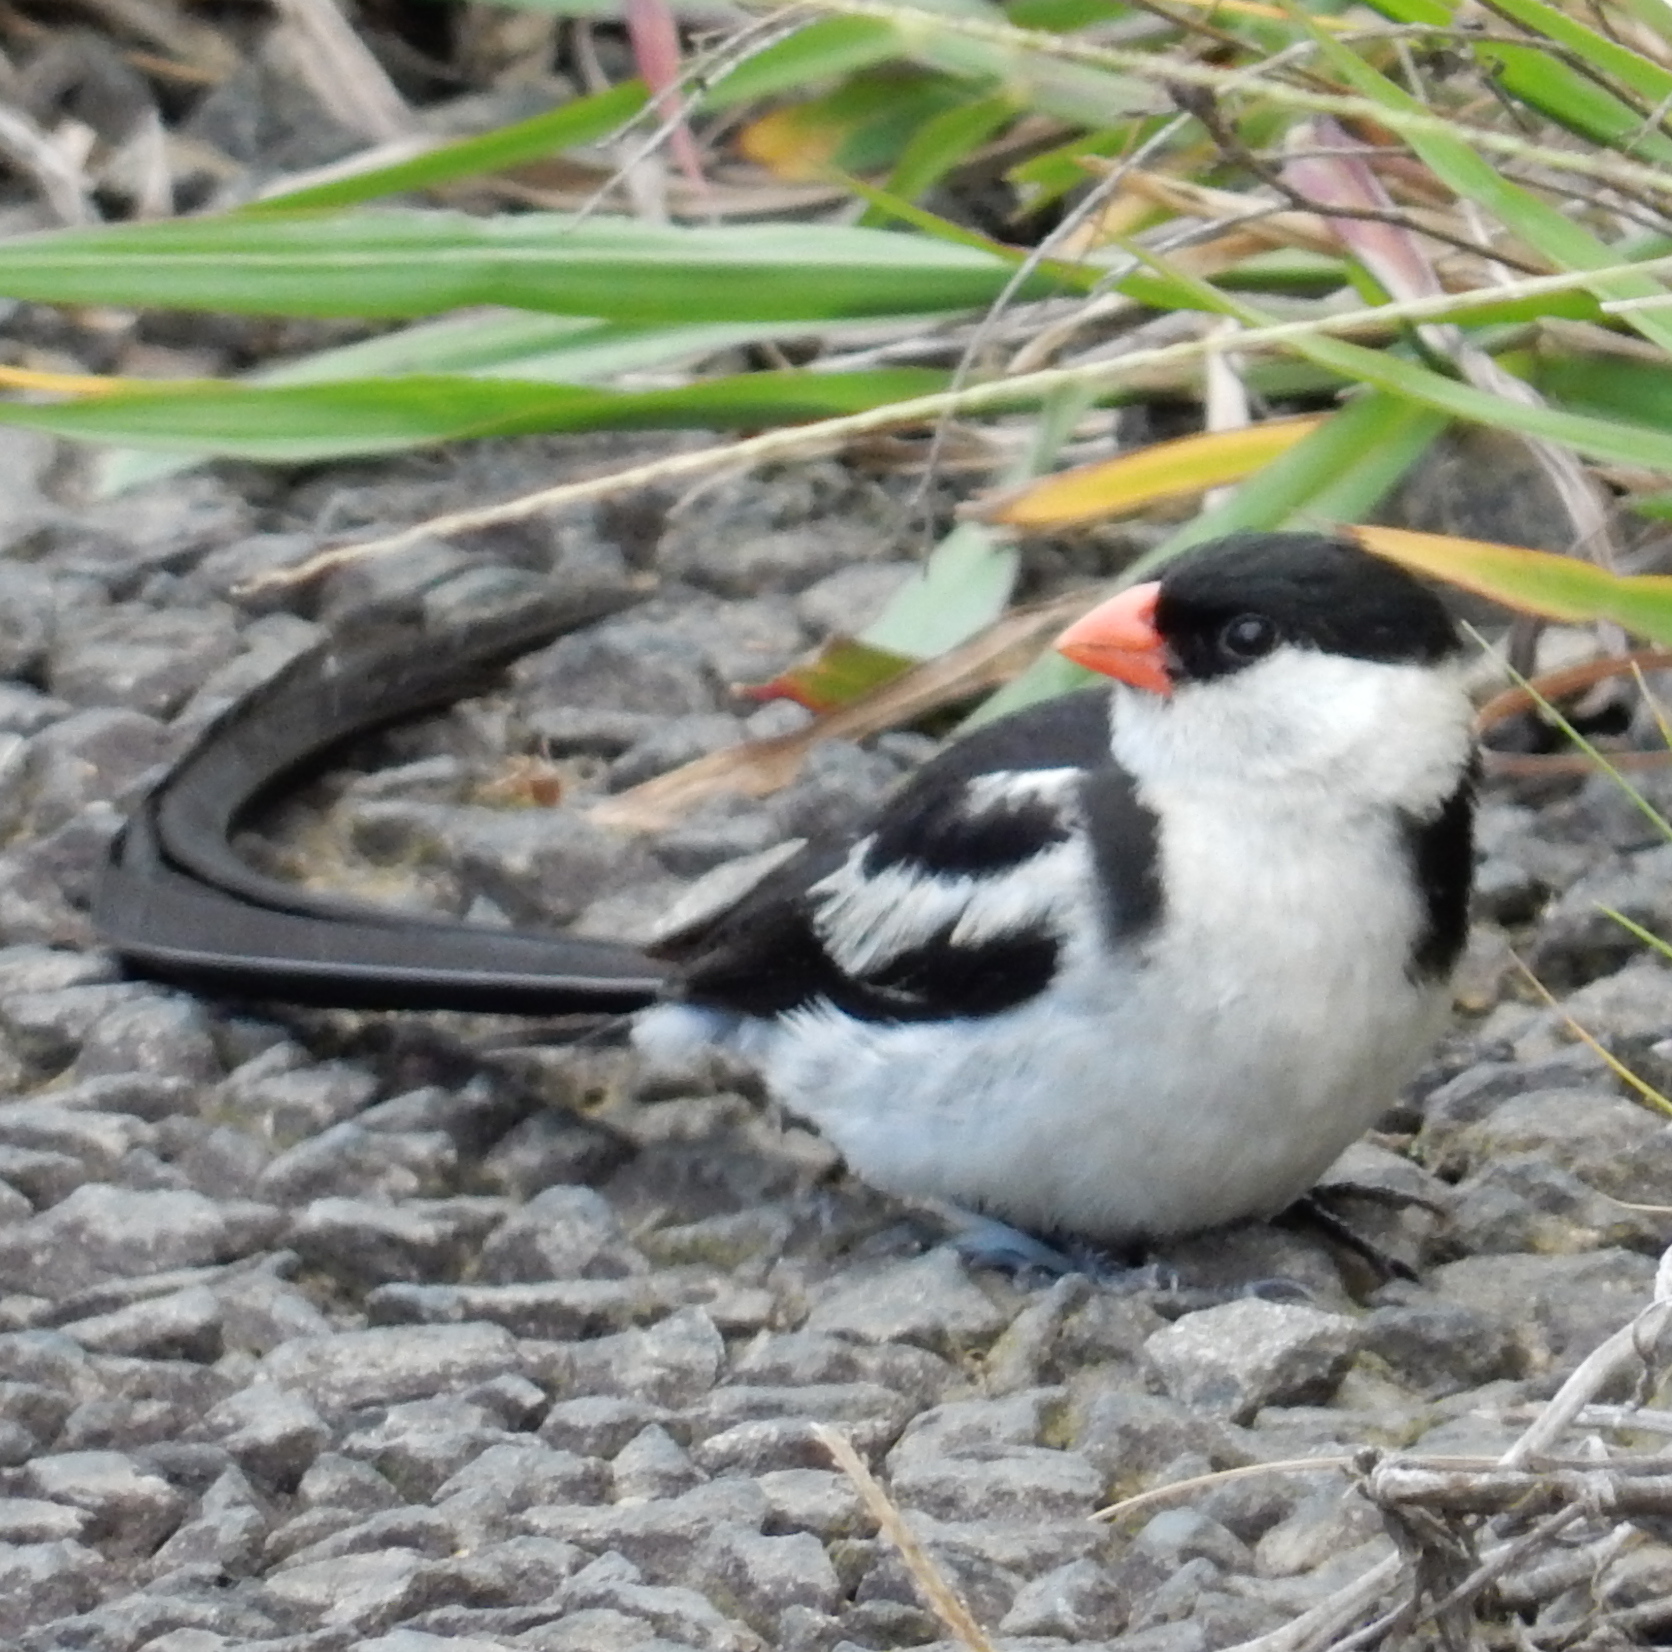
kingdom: Animalia
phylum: Chordata
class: Aves
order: Passeriformes
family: Viduidae
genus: Vidua
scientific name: Vidua macroura
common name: Pin-tailed whydah
